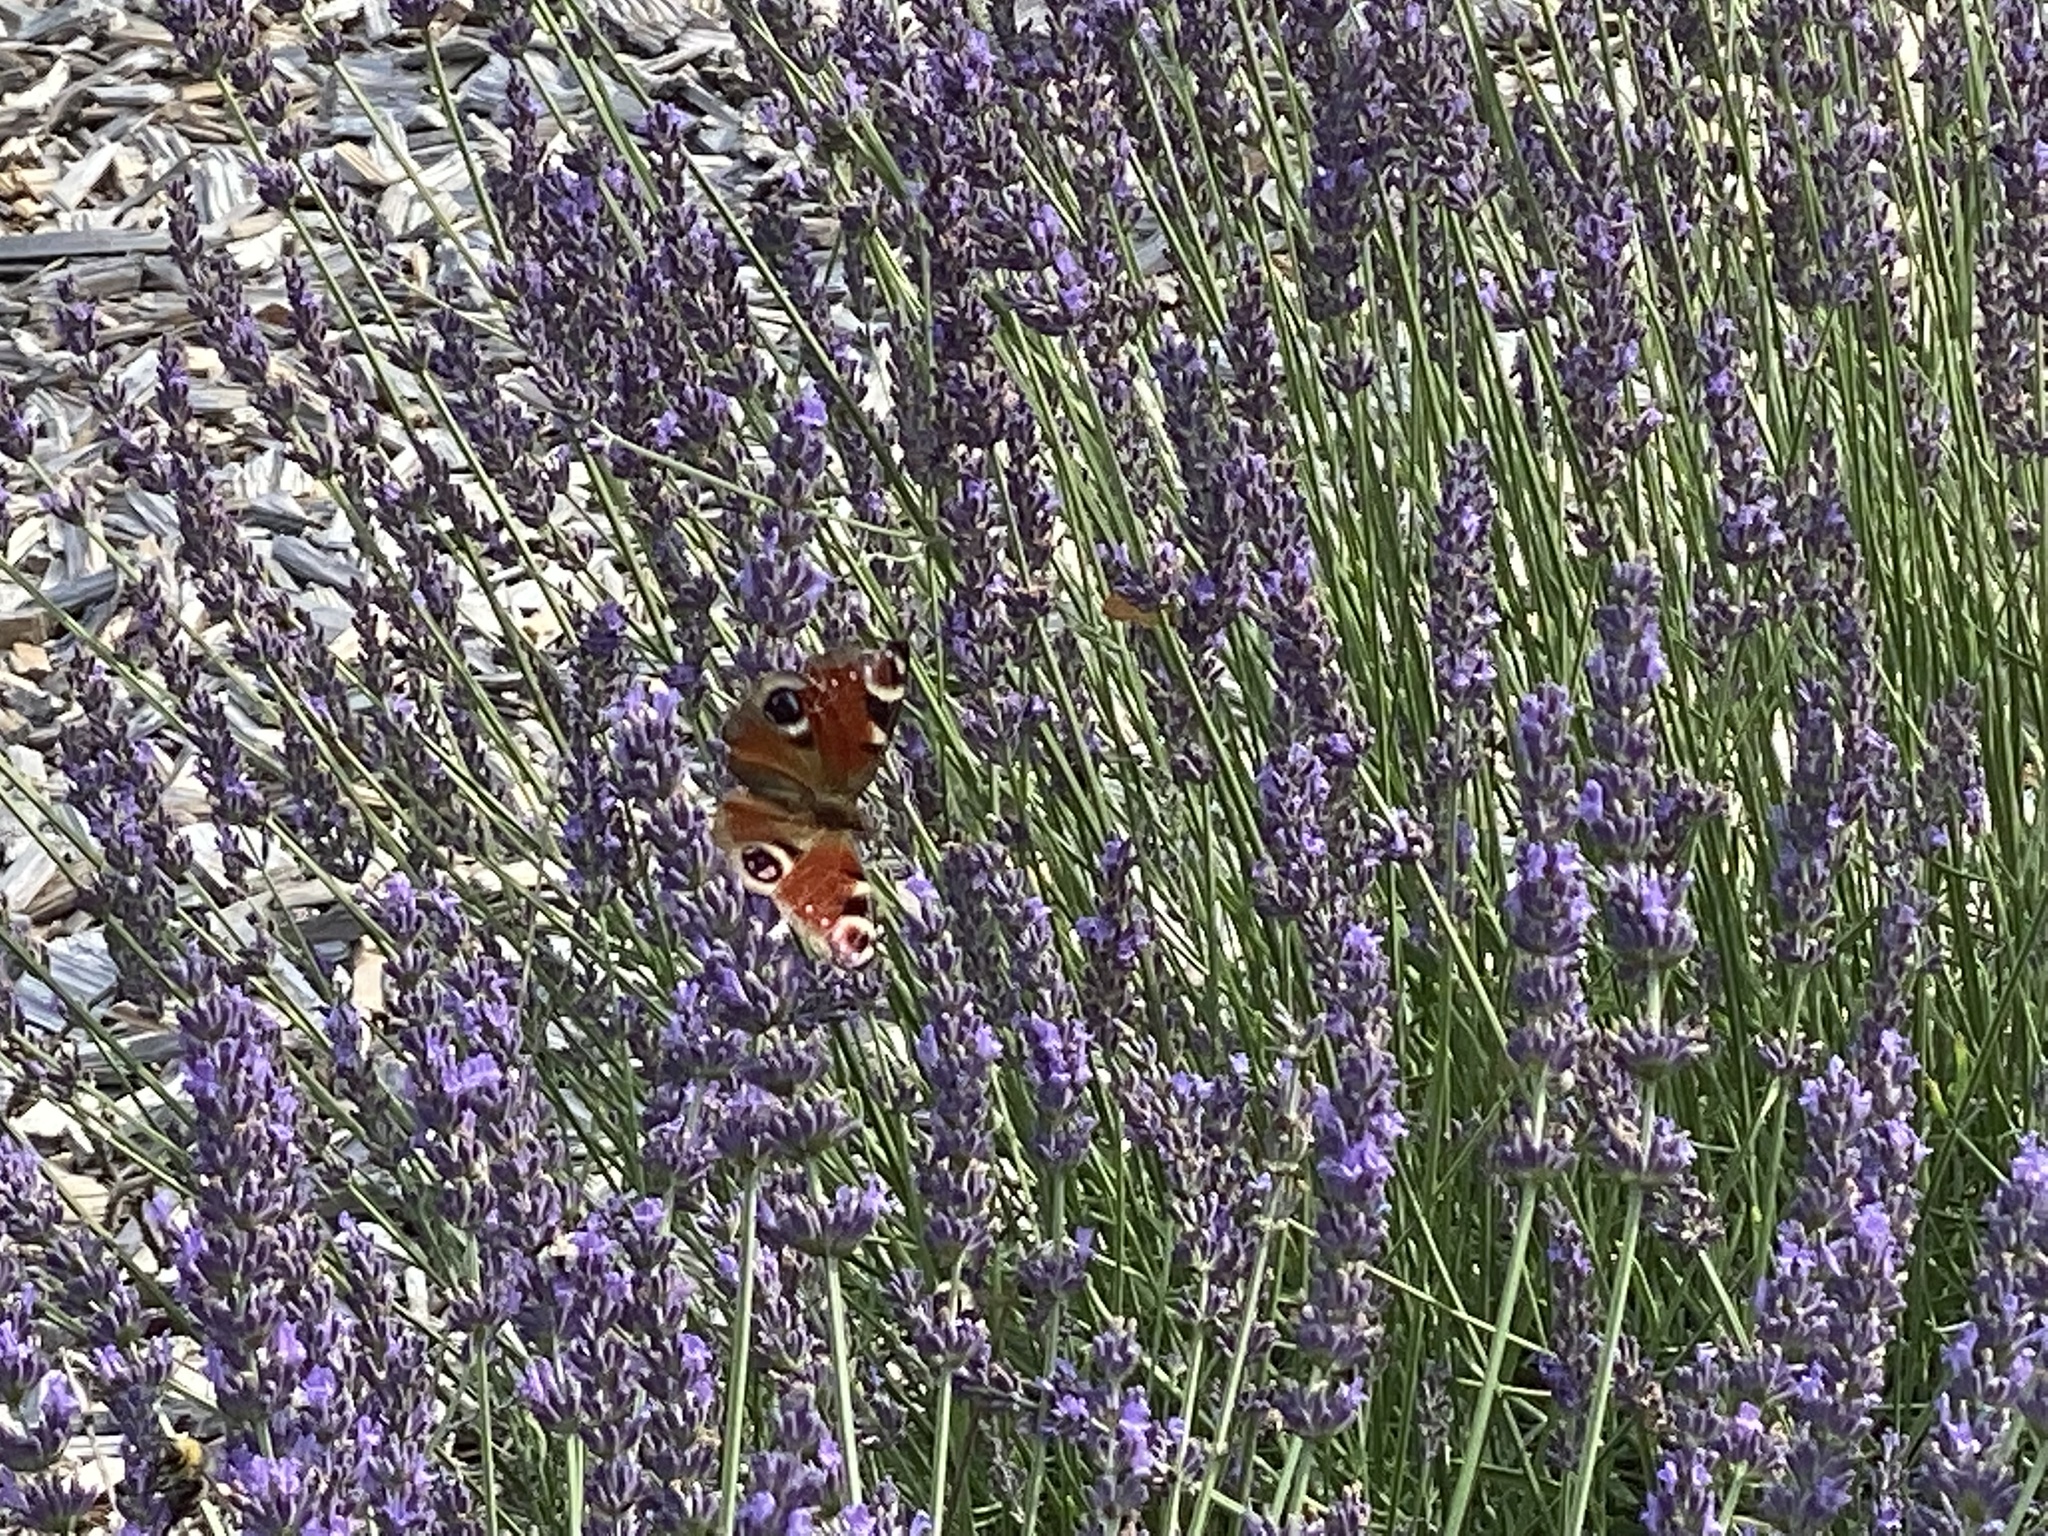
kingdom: Animalia
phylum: Arthropoda
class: Insecta
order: Lepidoptera
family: Nymphalidae
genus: Aglais
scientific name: Aglais io
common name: Peacock
